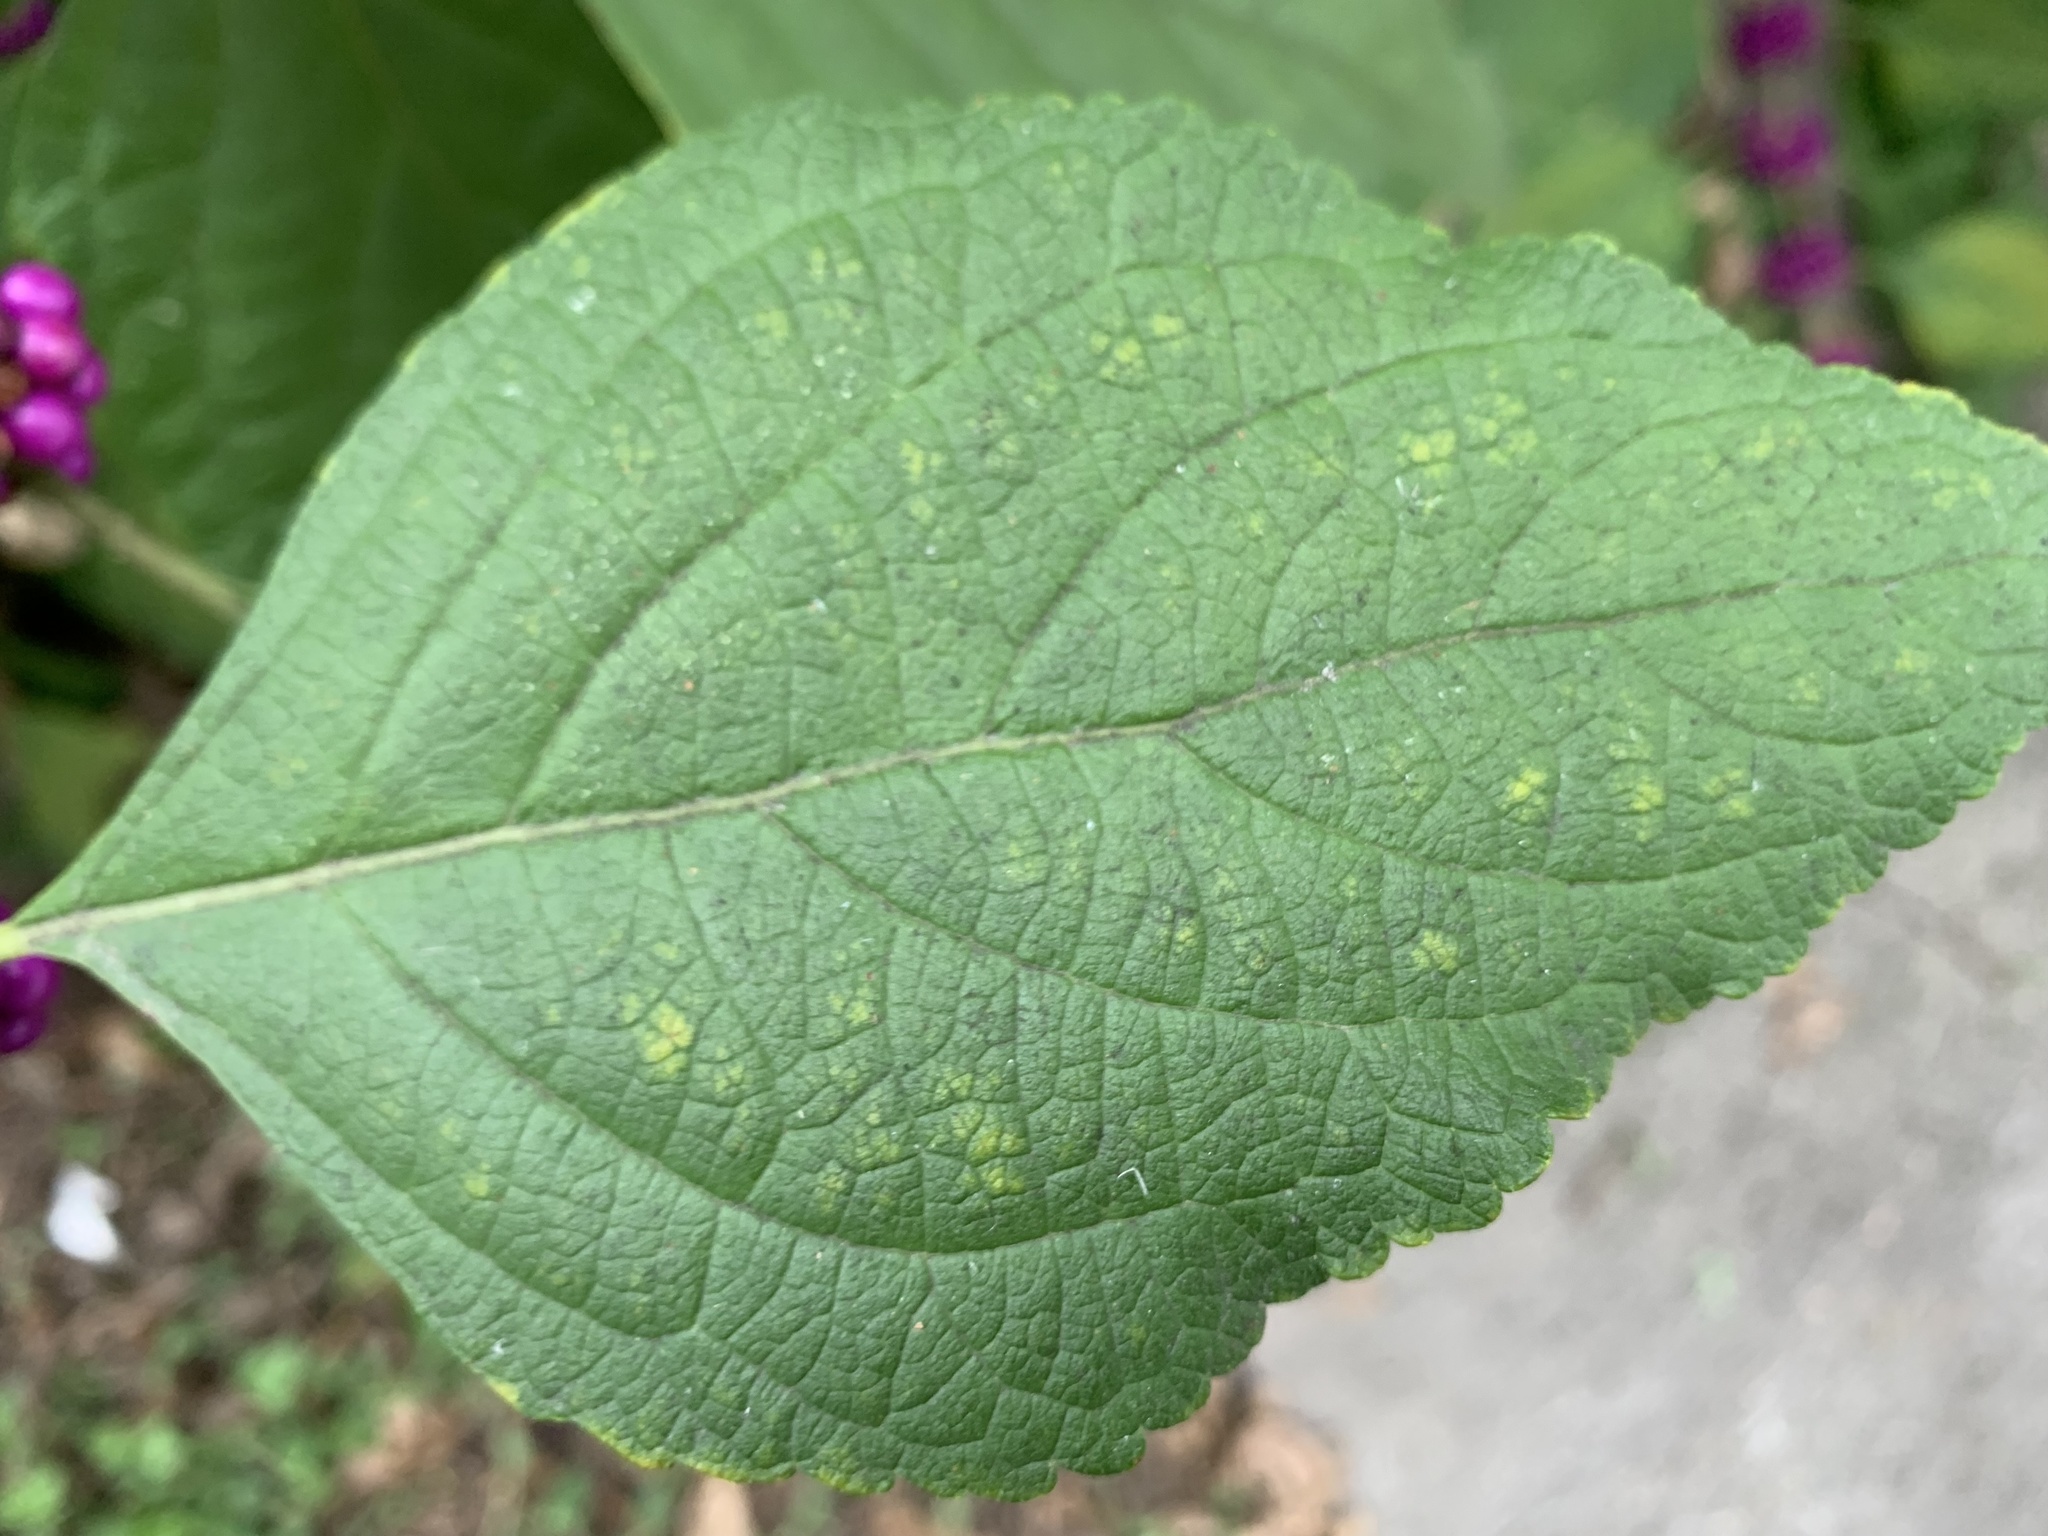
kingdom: Plantae
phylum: Tracheophyta
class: Magnoliopsida
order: Lamiales
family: Lamiaceae
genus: Callicarpa
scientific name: Callicarpa americana
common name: American beautyberry
